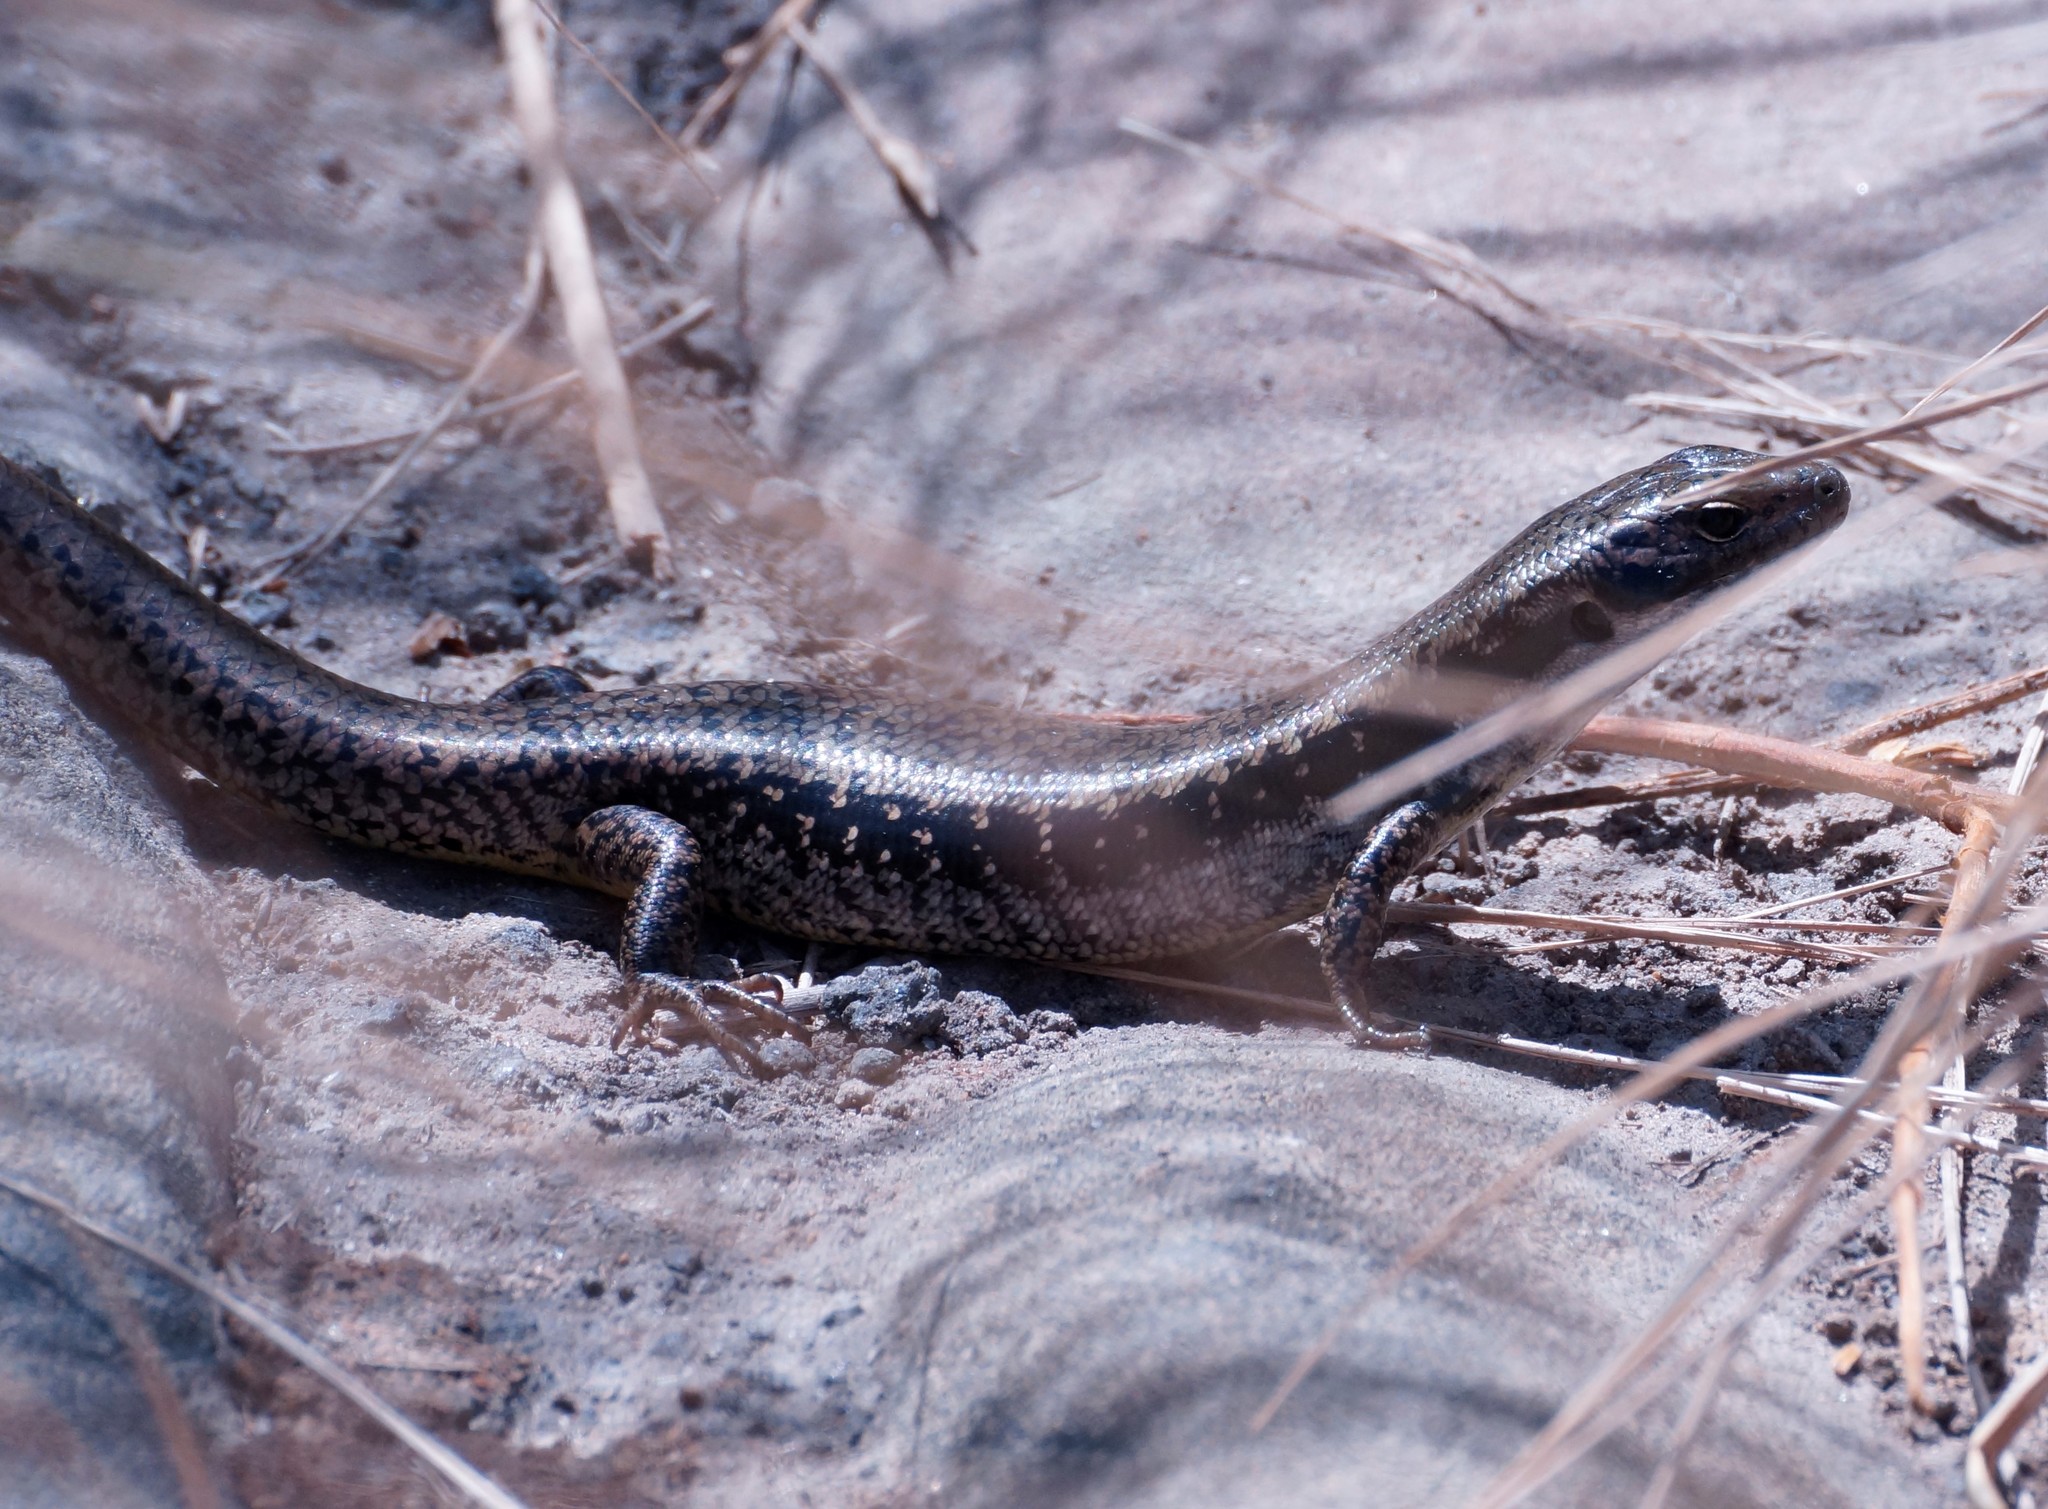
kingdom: Animalia
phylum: Chordata
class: Squamata
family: Scincidae
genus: Eulamprus
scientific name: Eulamprus tympanum
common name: Cool-temperate water-skink
